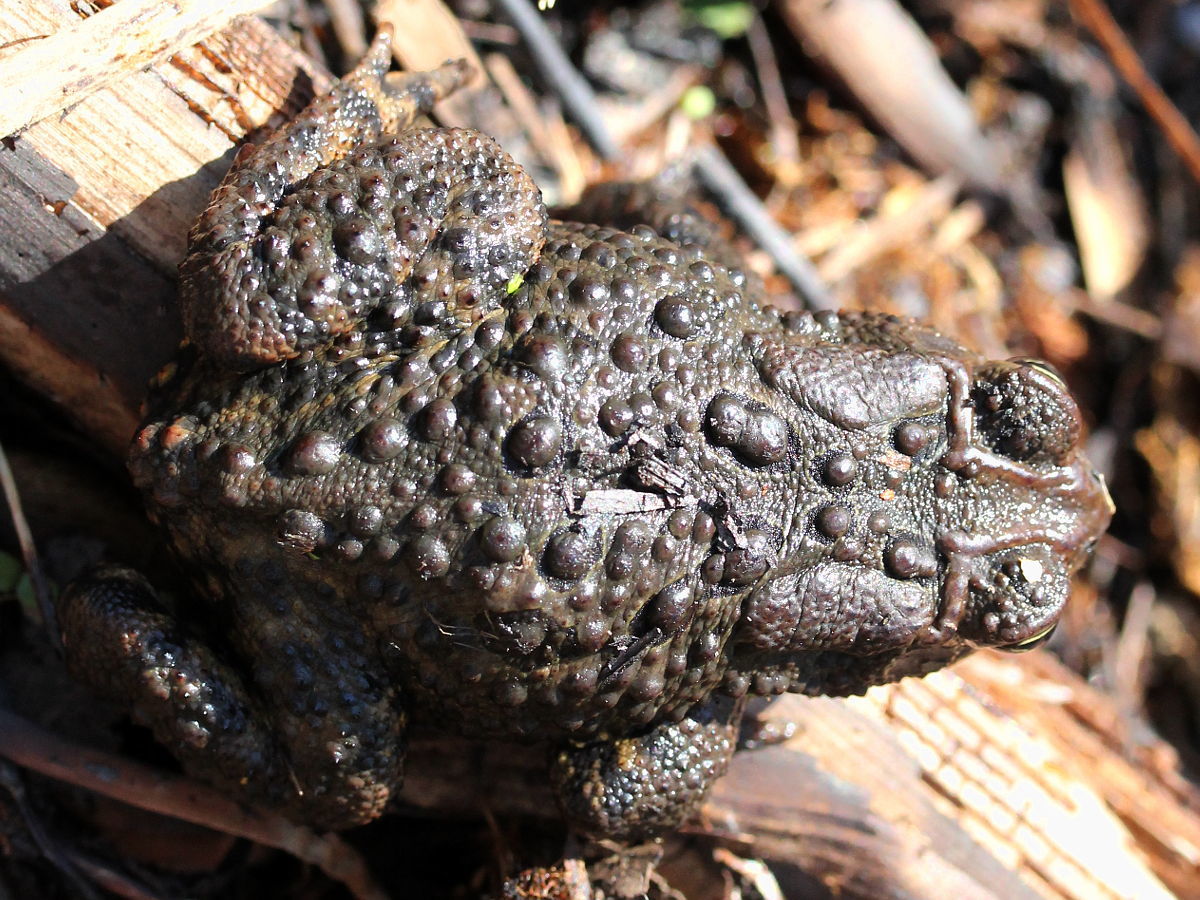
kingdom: Animalia
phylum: Chordata
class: Amphibia
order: Anura
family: Bufonidae
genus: Anaxyrus
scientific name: Anaxyrus americanus
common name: American toad
